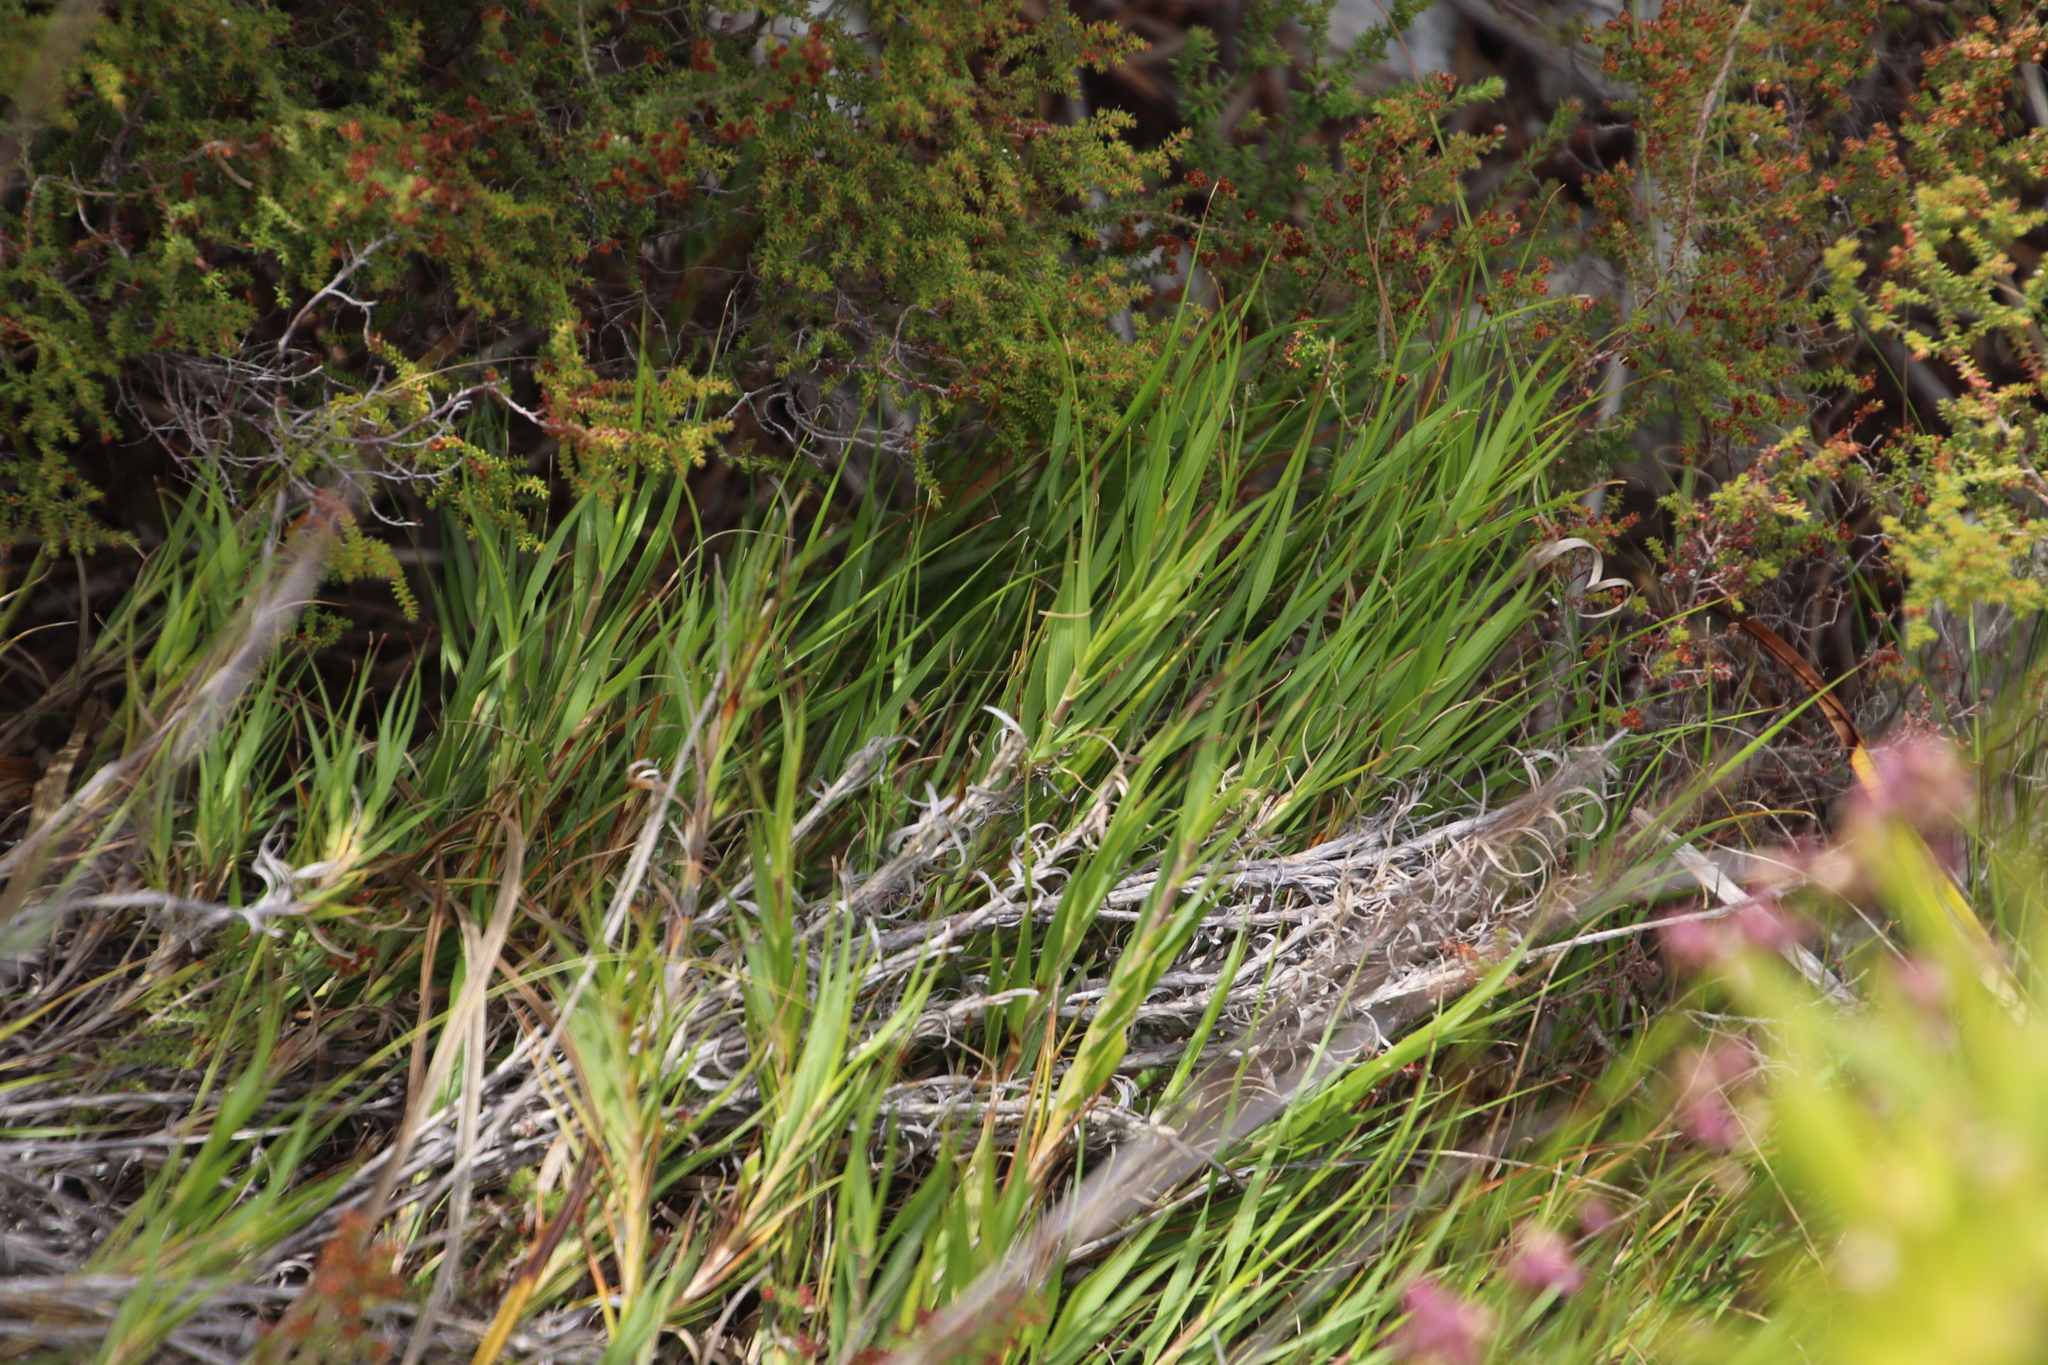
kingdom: Plantae
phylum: Tracheophyta
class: Liliopsida
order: Poales
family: Poaceae
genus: Pseudopentameris
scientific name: Pseudopentameris brachyphylla
